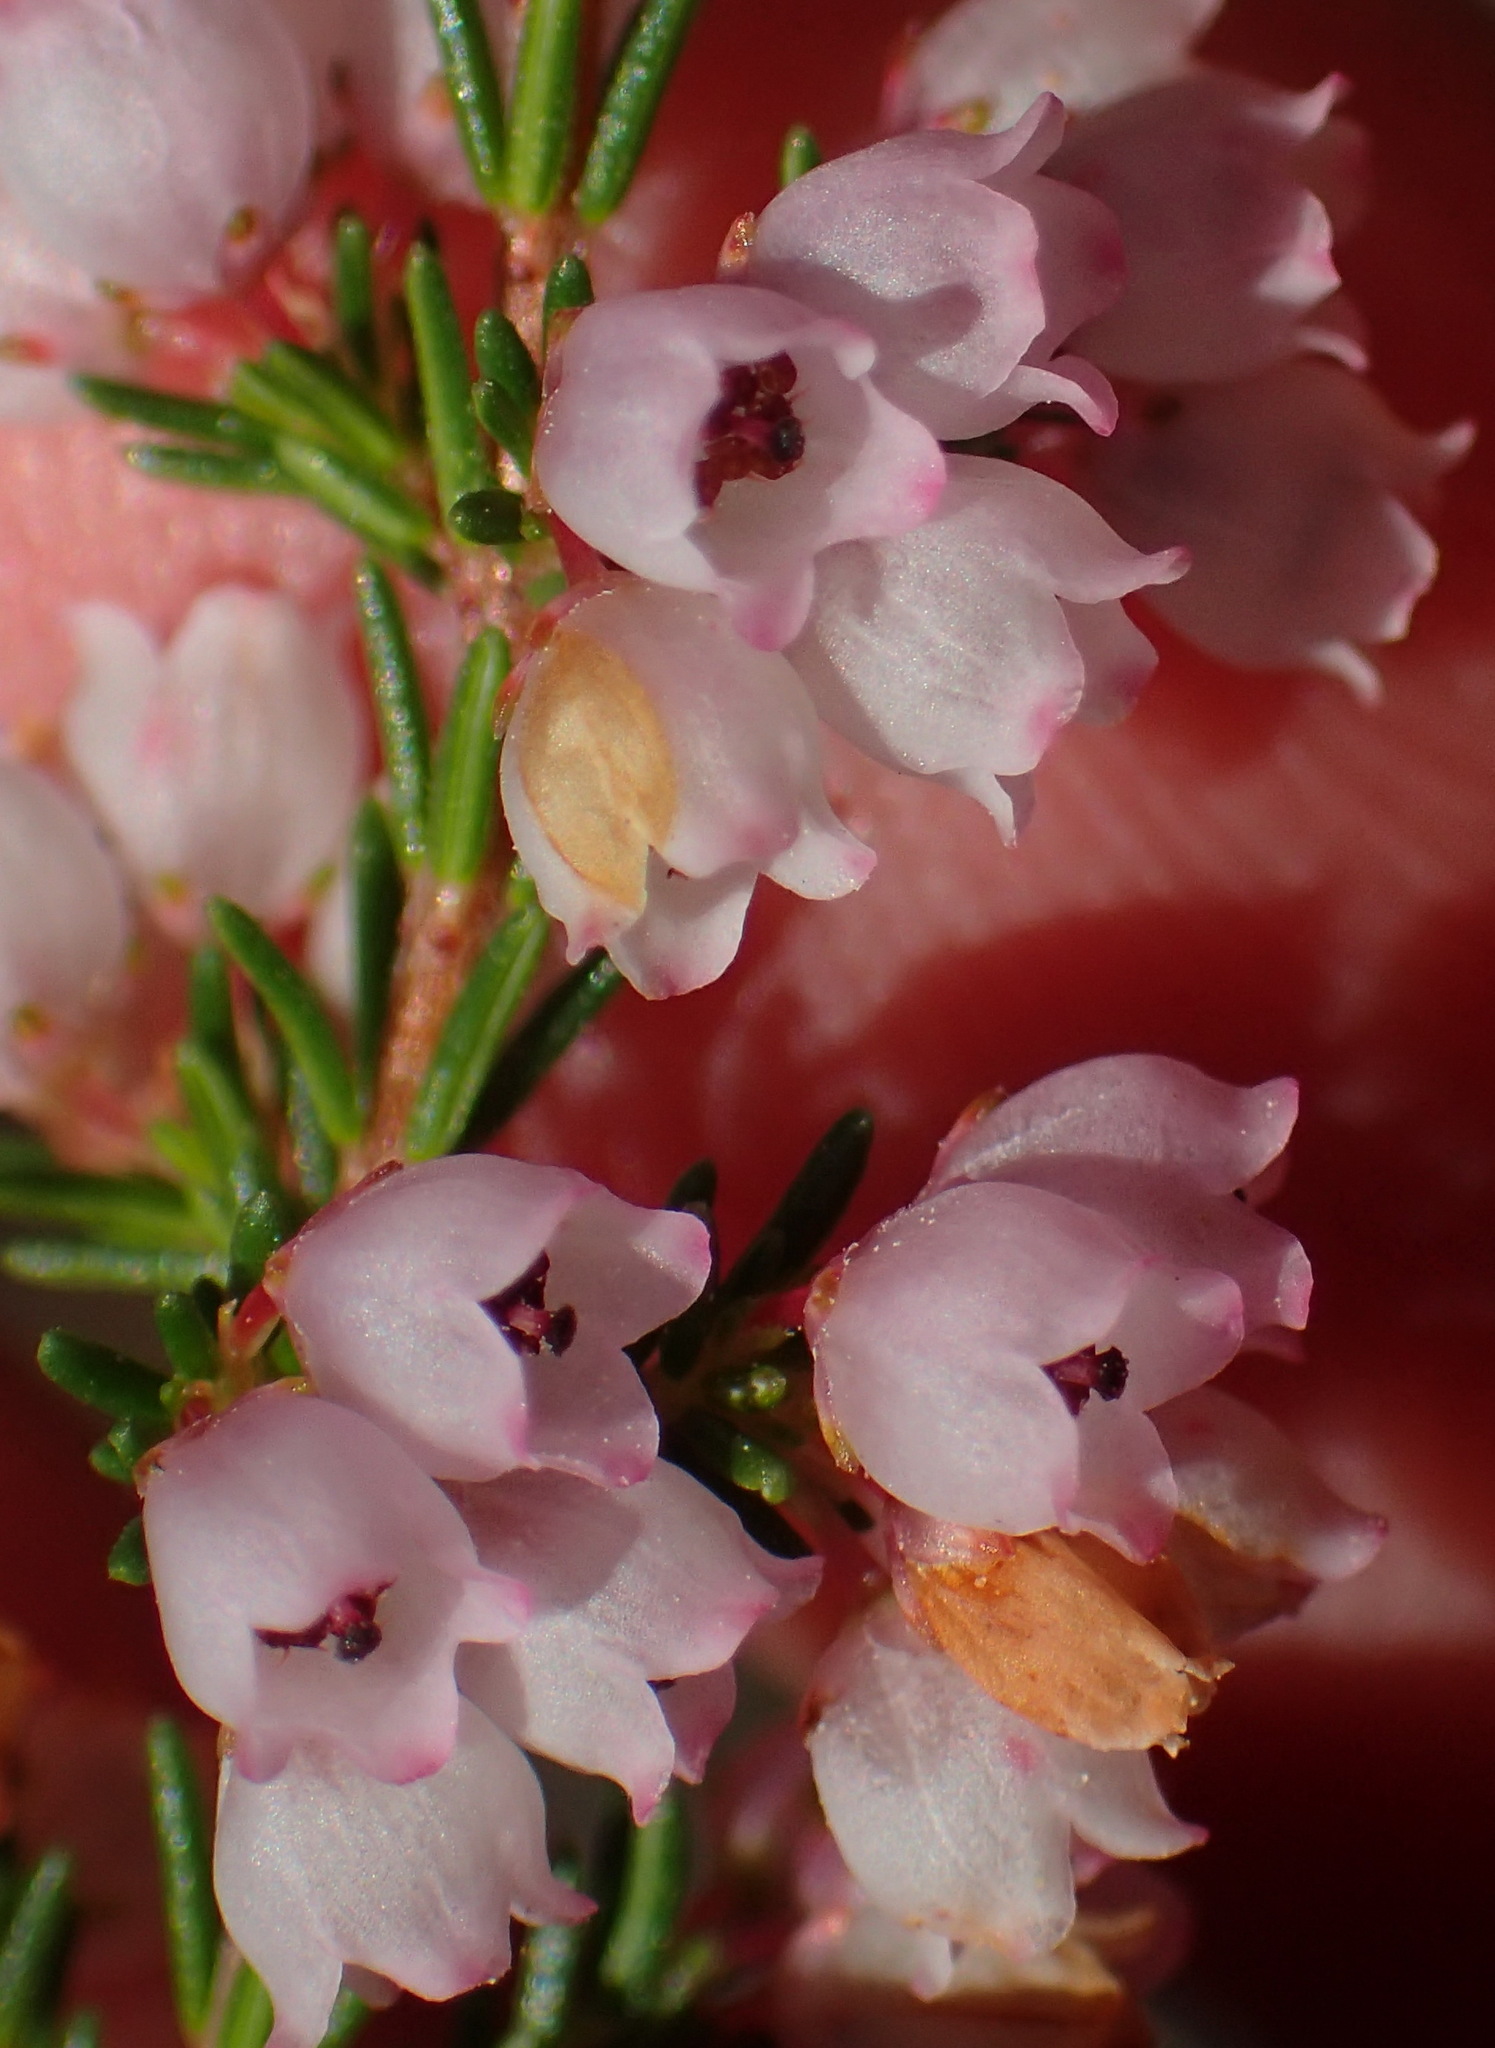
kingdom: Plantae
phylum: Tracheophyta
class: Magnoliopsida
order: Ericales
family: Ericaceae
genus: Erica
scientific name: Erica quadrangularis
